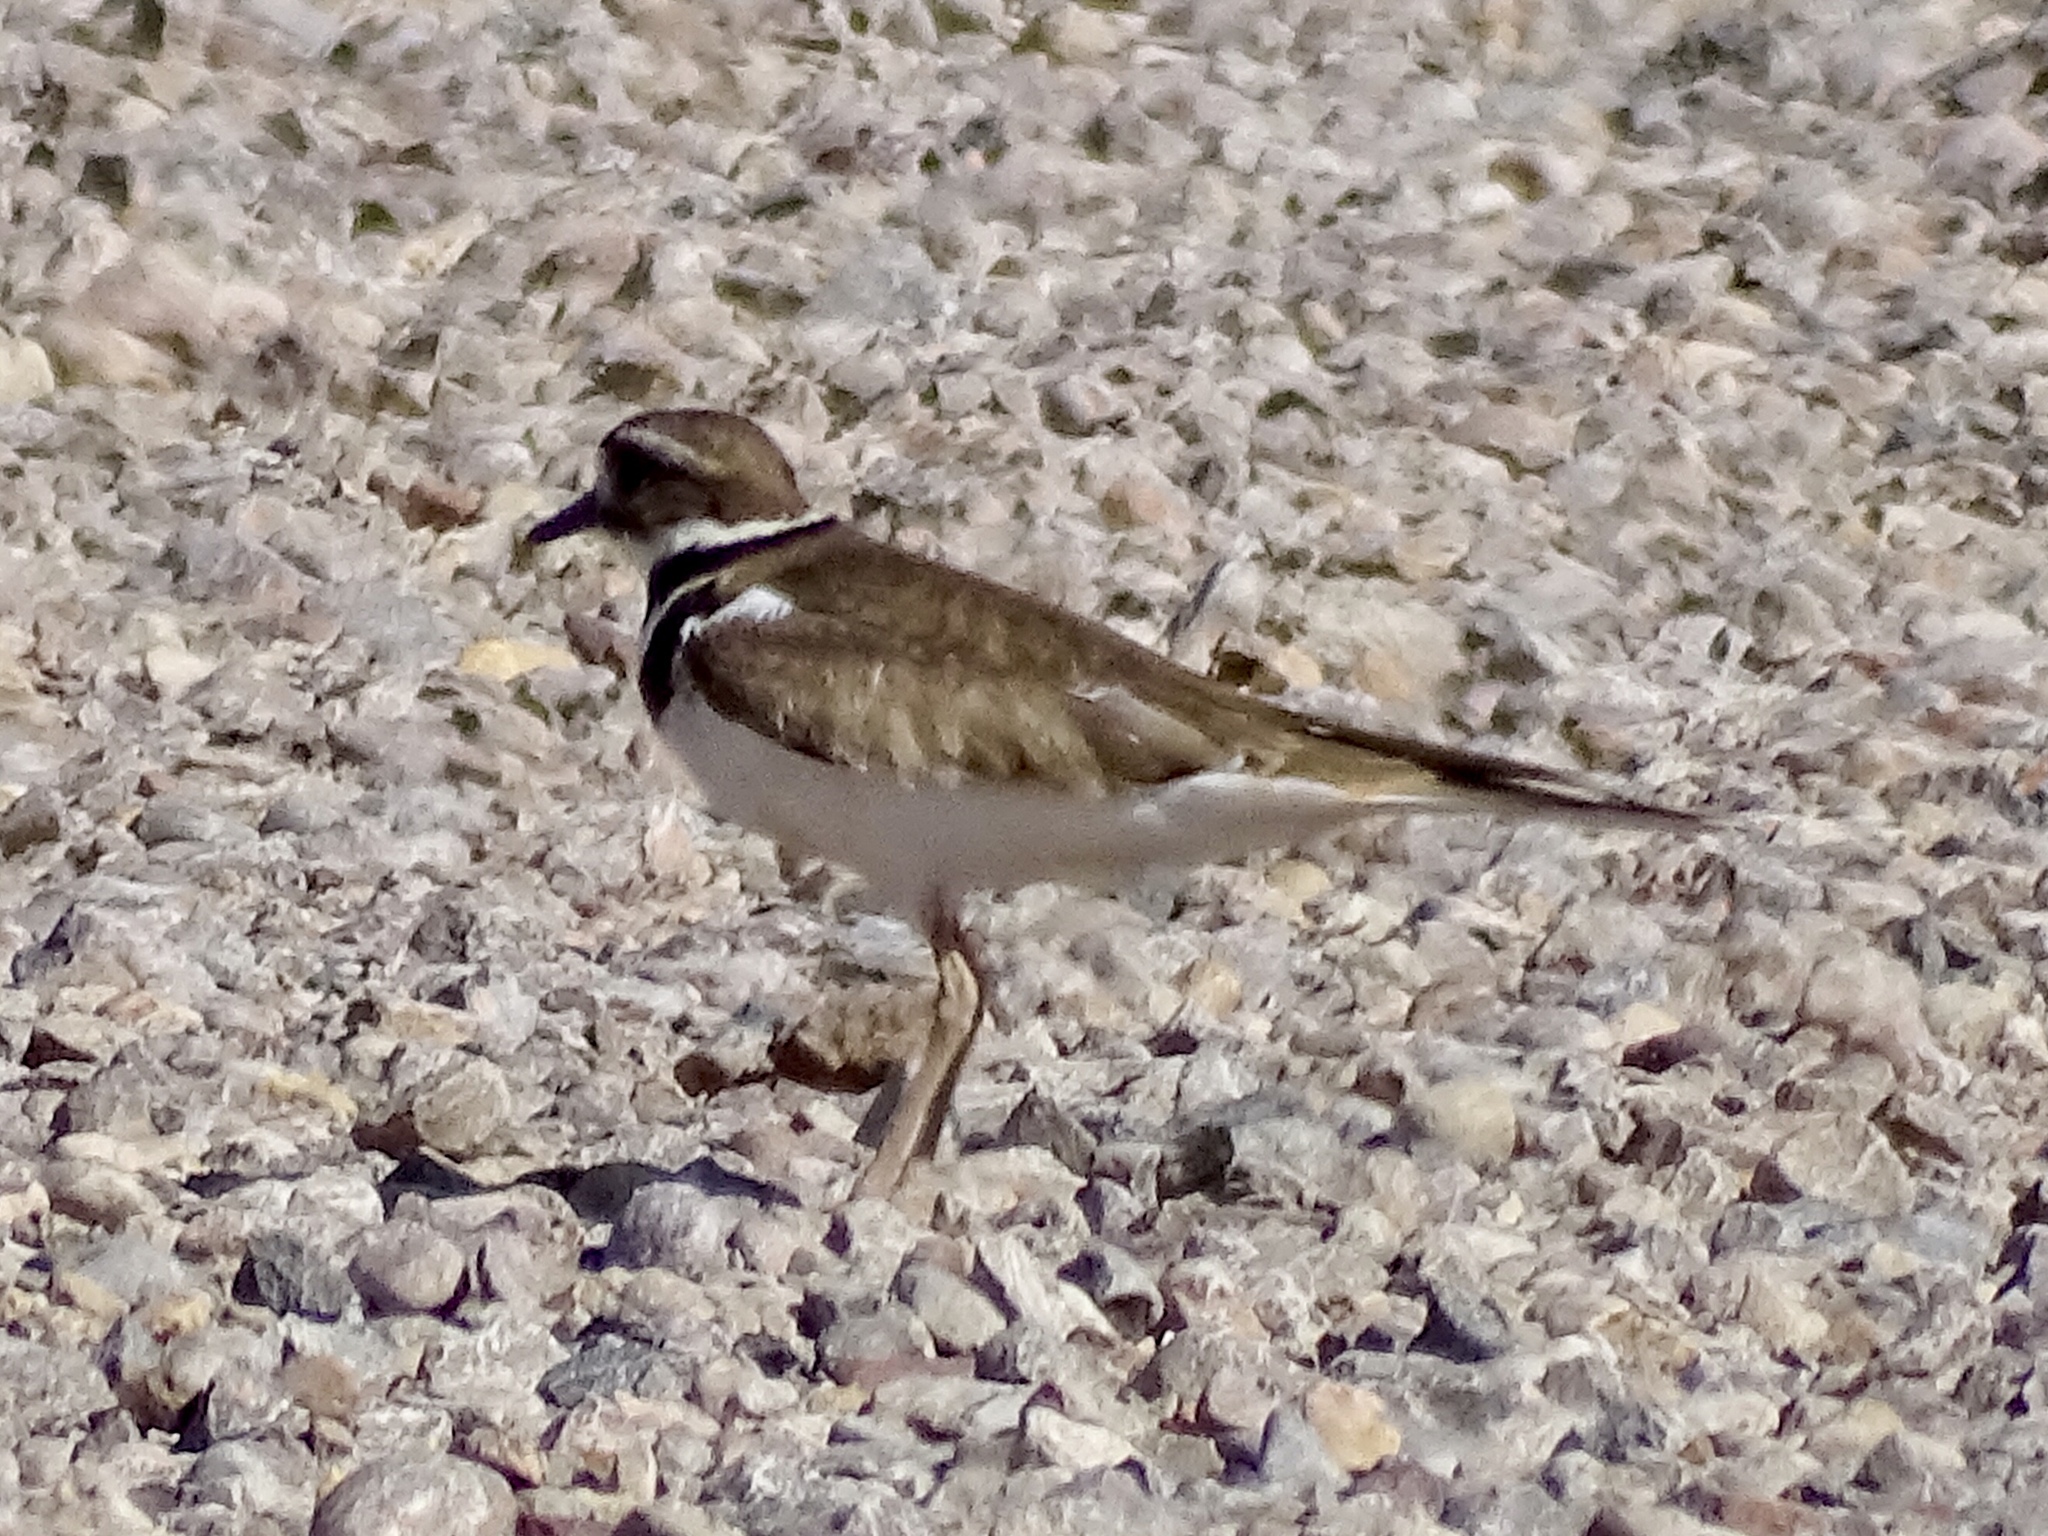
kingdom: Animalia
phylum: Chordata
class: Aves
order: Charadriiformes
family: Charadriidae
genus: Charadrius
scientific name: Charadrius vociferus
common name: Killdeer
